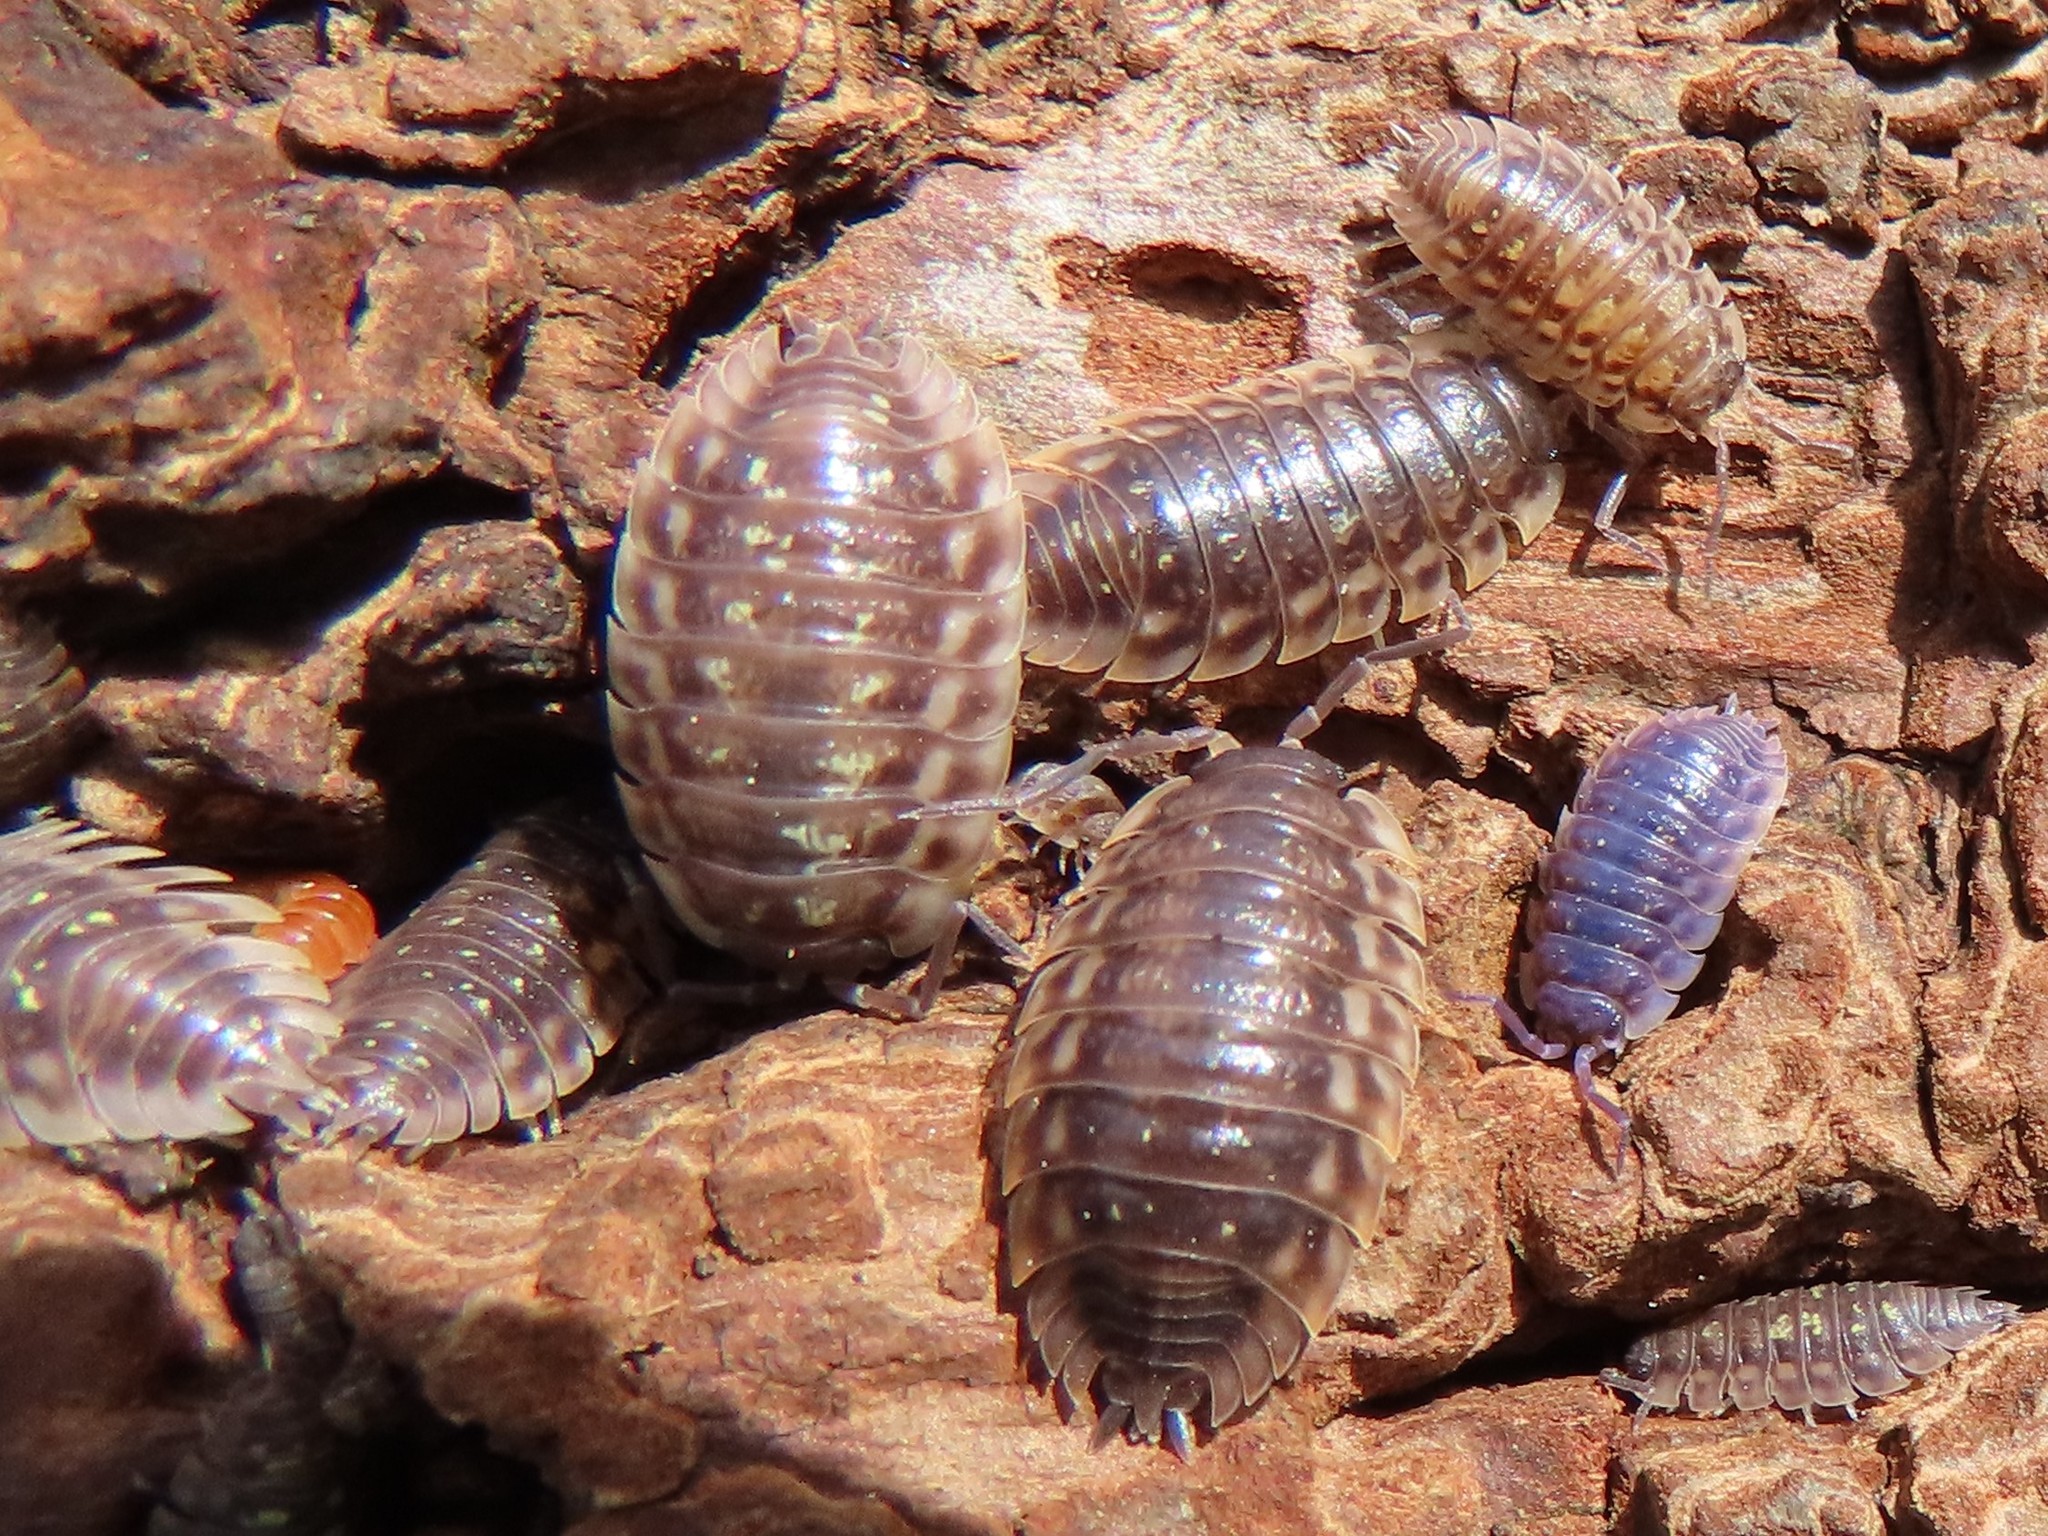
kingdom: Viruses
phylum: Nucleocytoviricota
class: Megaviricetes
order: Pimascovirales
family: Iridoviridae
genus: Iridovirus
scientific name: Iridovirus Invertebrate iridescent virus 31
